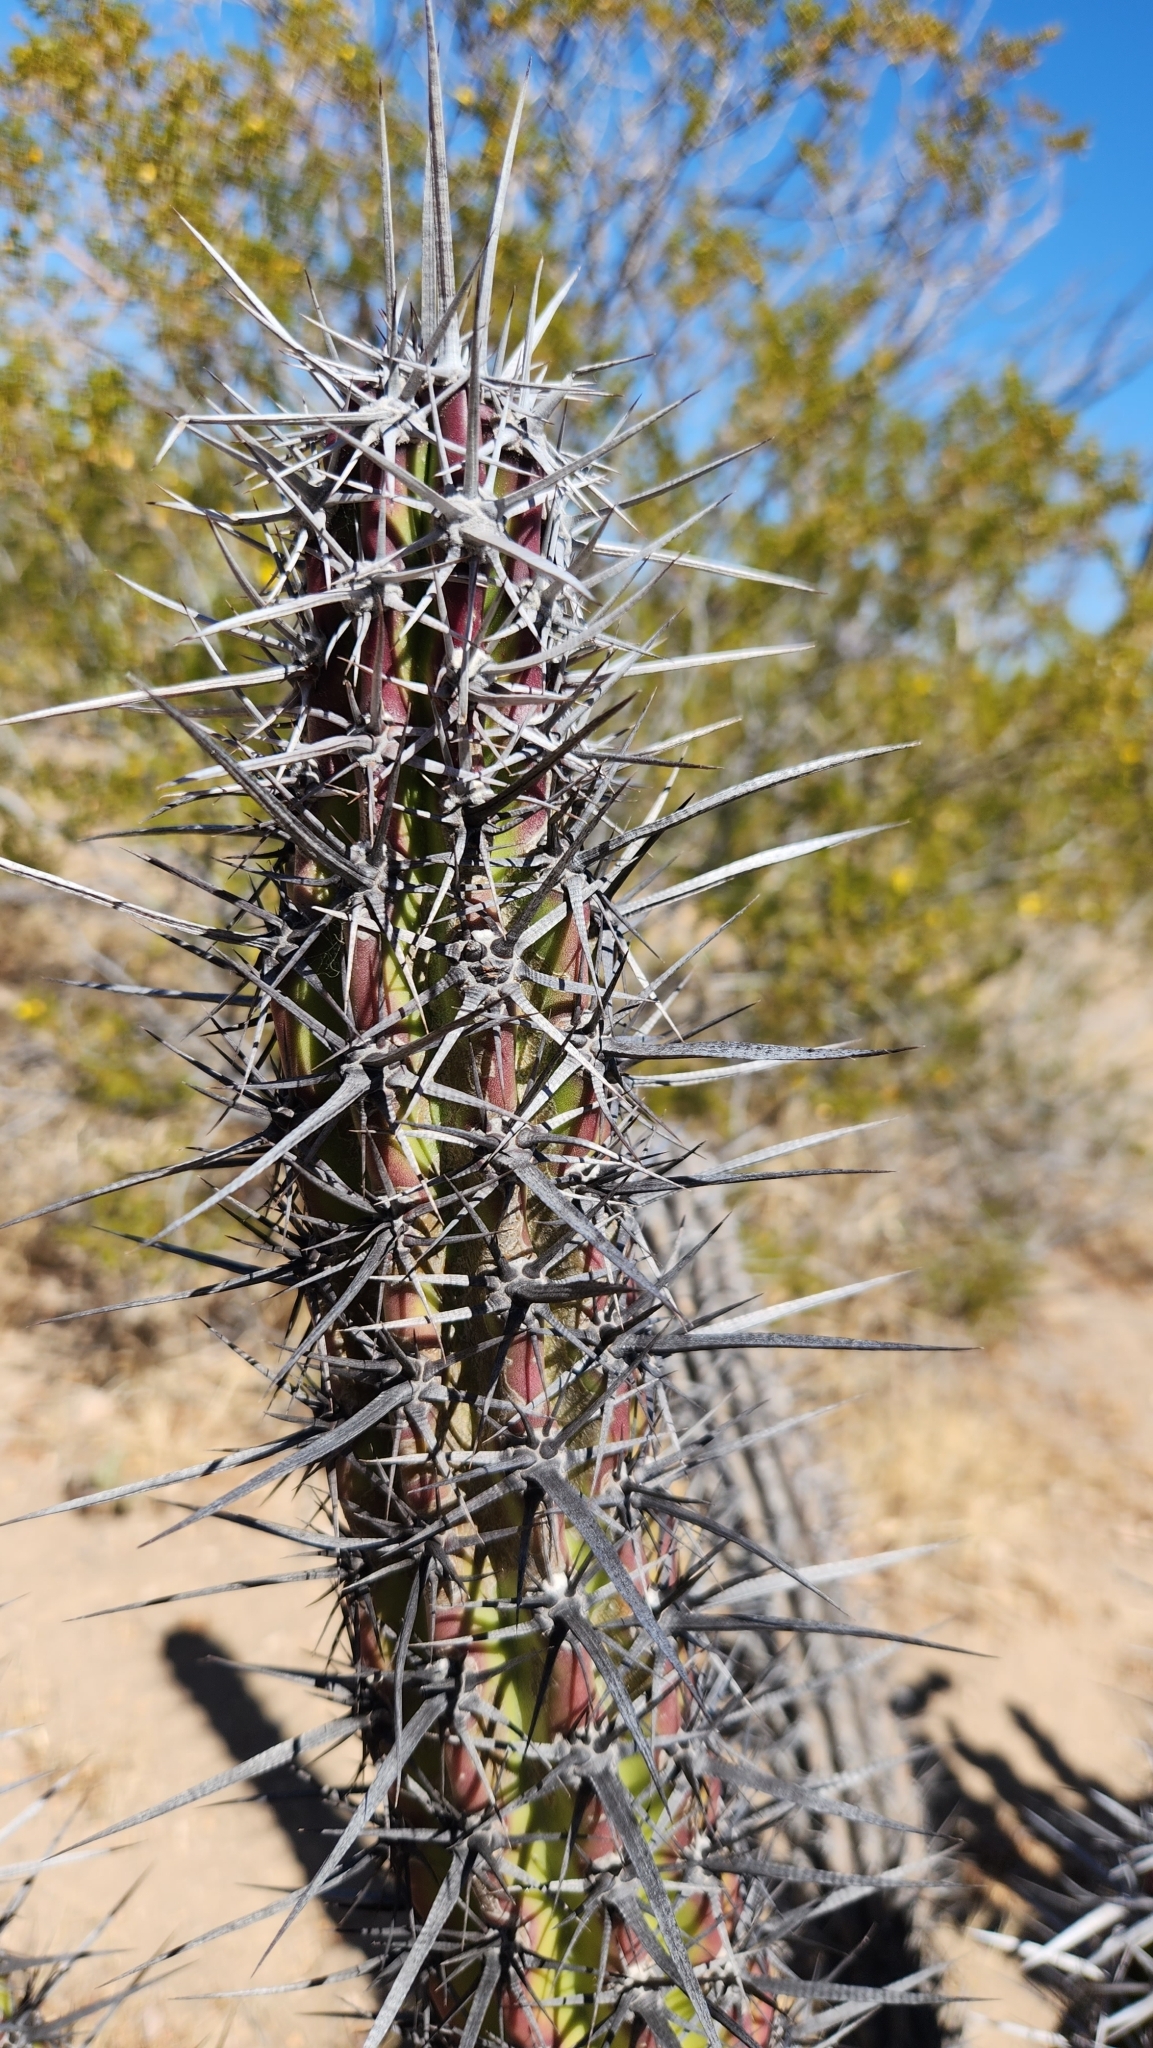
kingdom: Plantae
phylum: Tracheophyta
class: Magnoliopsida
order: Caryophyllales
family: Cactaceae
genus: Stenocereus
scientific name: Stenocereus gummosus
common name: Dagger cactus
